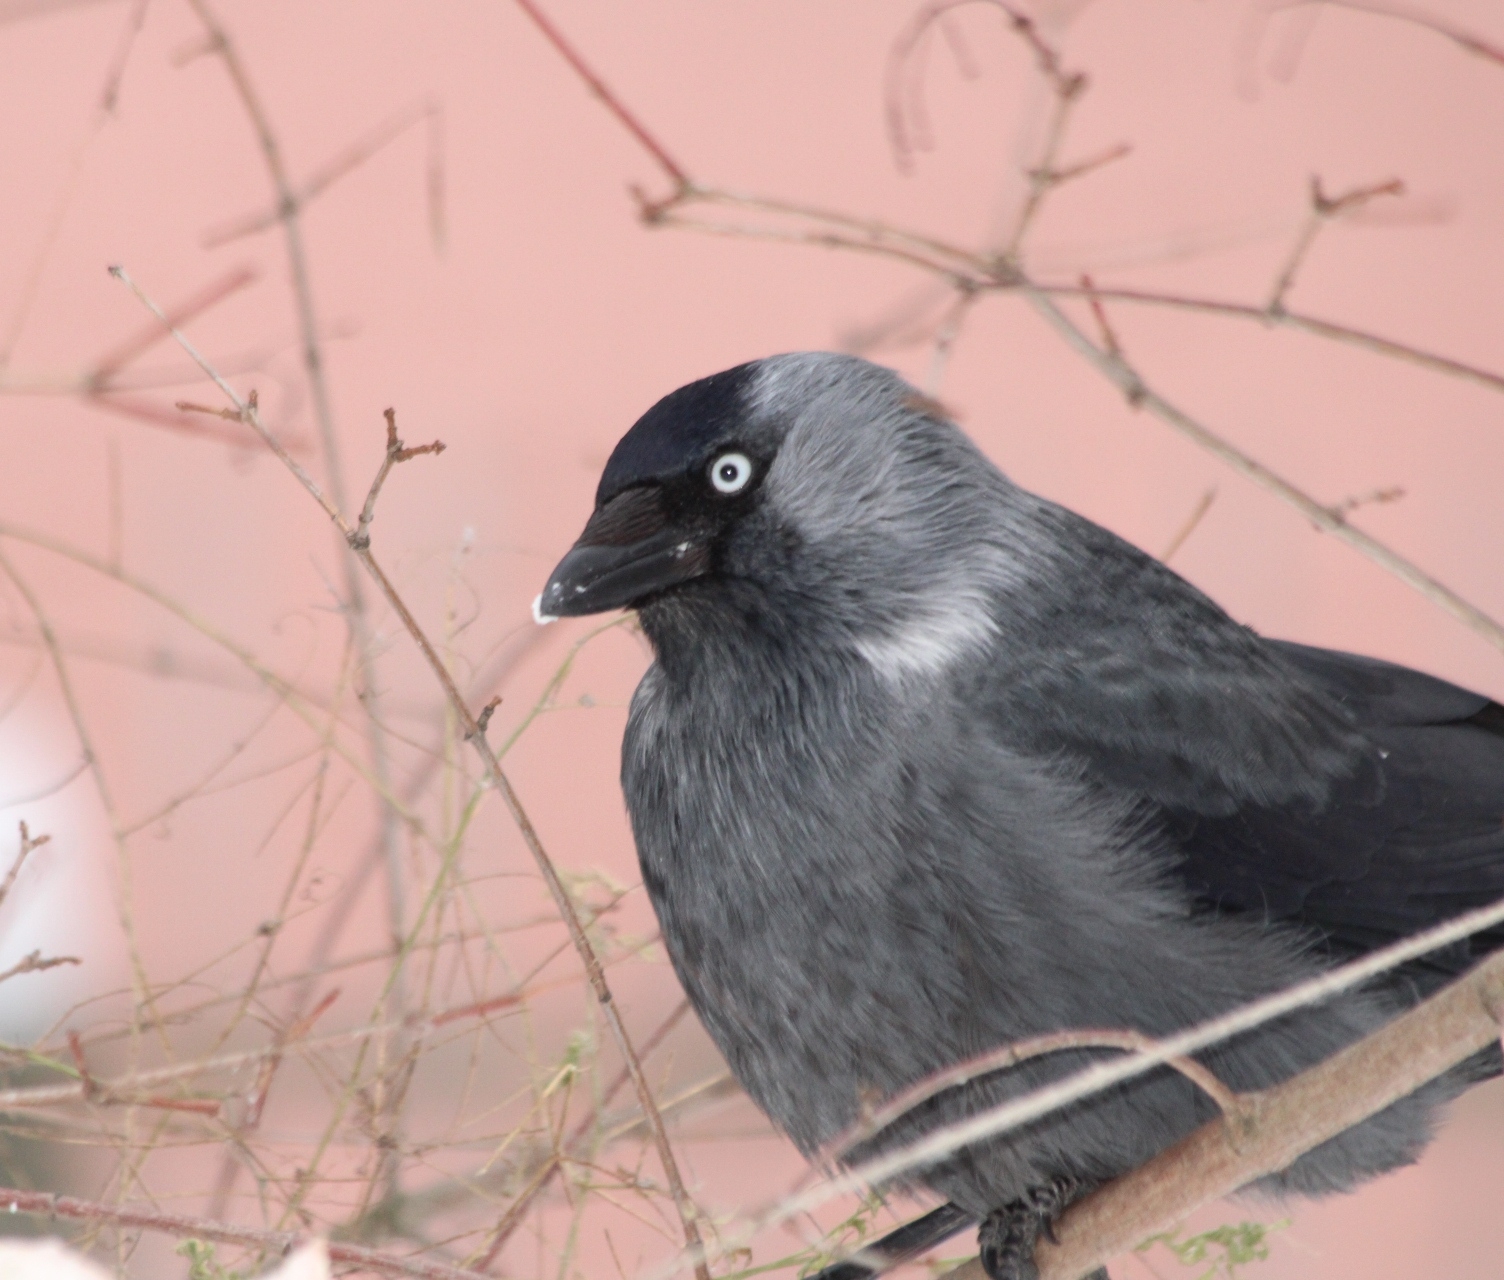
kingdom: Animalia
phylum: Chordata
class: Aves
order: Passeriformes
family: Corvidae
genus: Coloeus
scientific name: Coloeus monedula
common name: Western jackdaw
